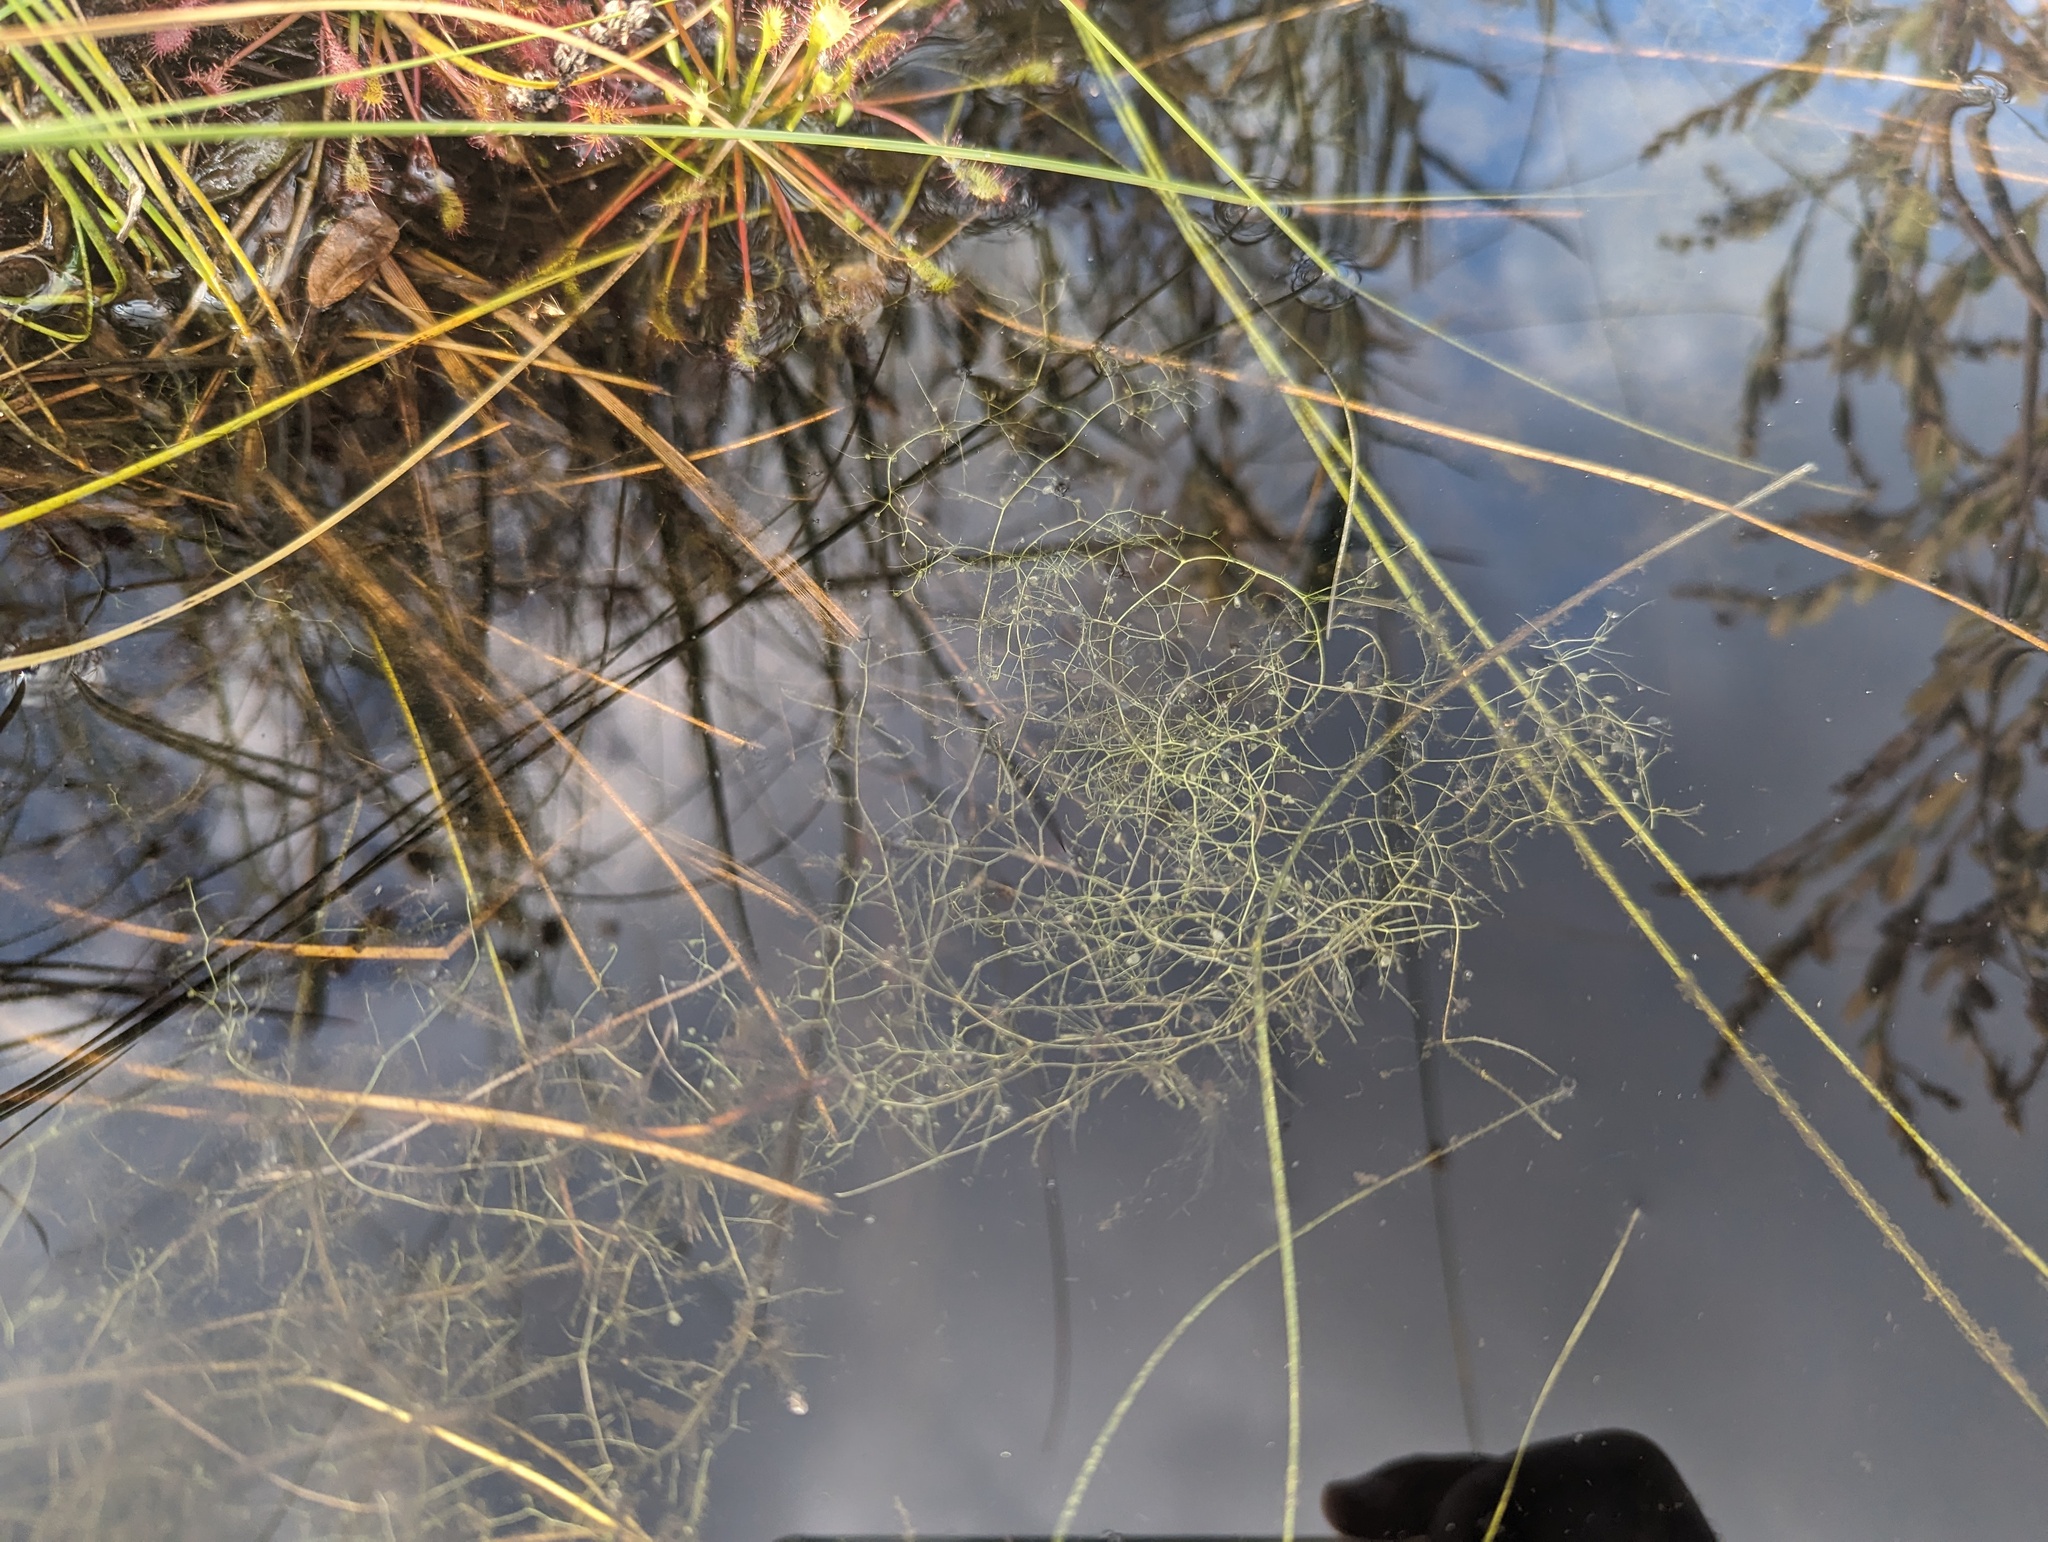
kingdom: Plantae
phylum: Tracheophyta
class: Magnoliopsida
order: Lamiales
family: Lentibulariaceae
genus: Utricularia
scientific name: Utricularia gibba
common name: Humped bladderwort
